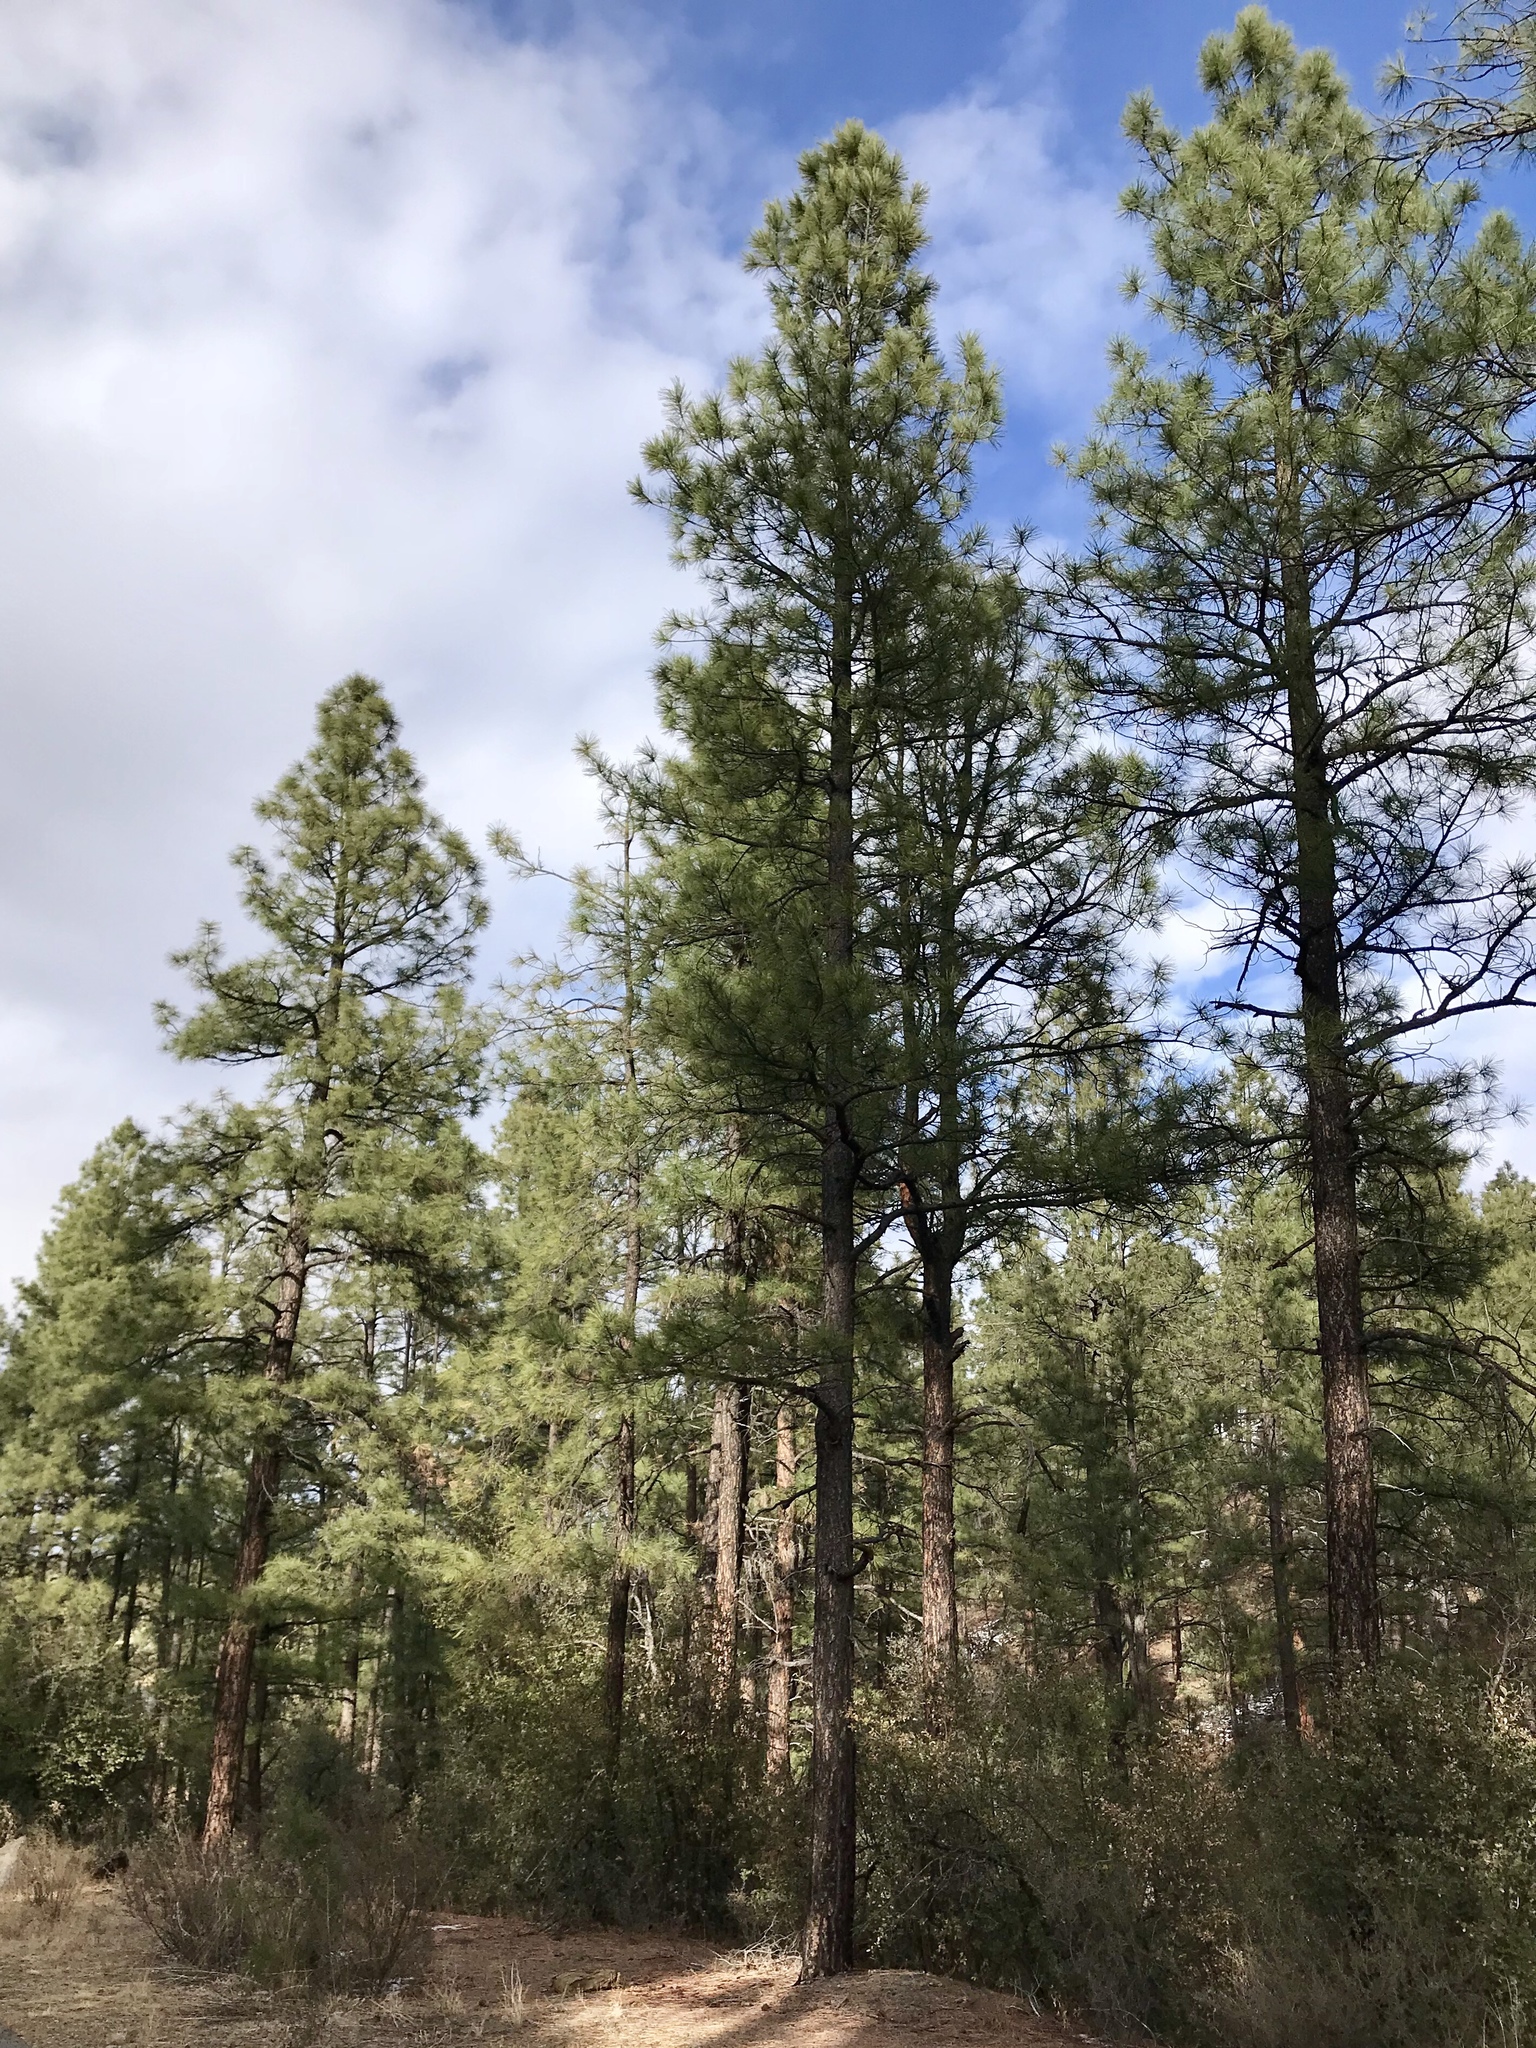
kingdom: Plantae
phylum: Tracheophyta
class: Pinopsida
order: Pinales
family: Pinaceae
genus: Pinus
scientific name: Pinus ponderosa
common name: Western yellow-pine
